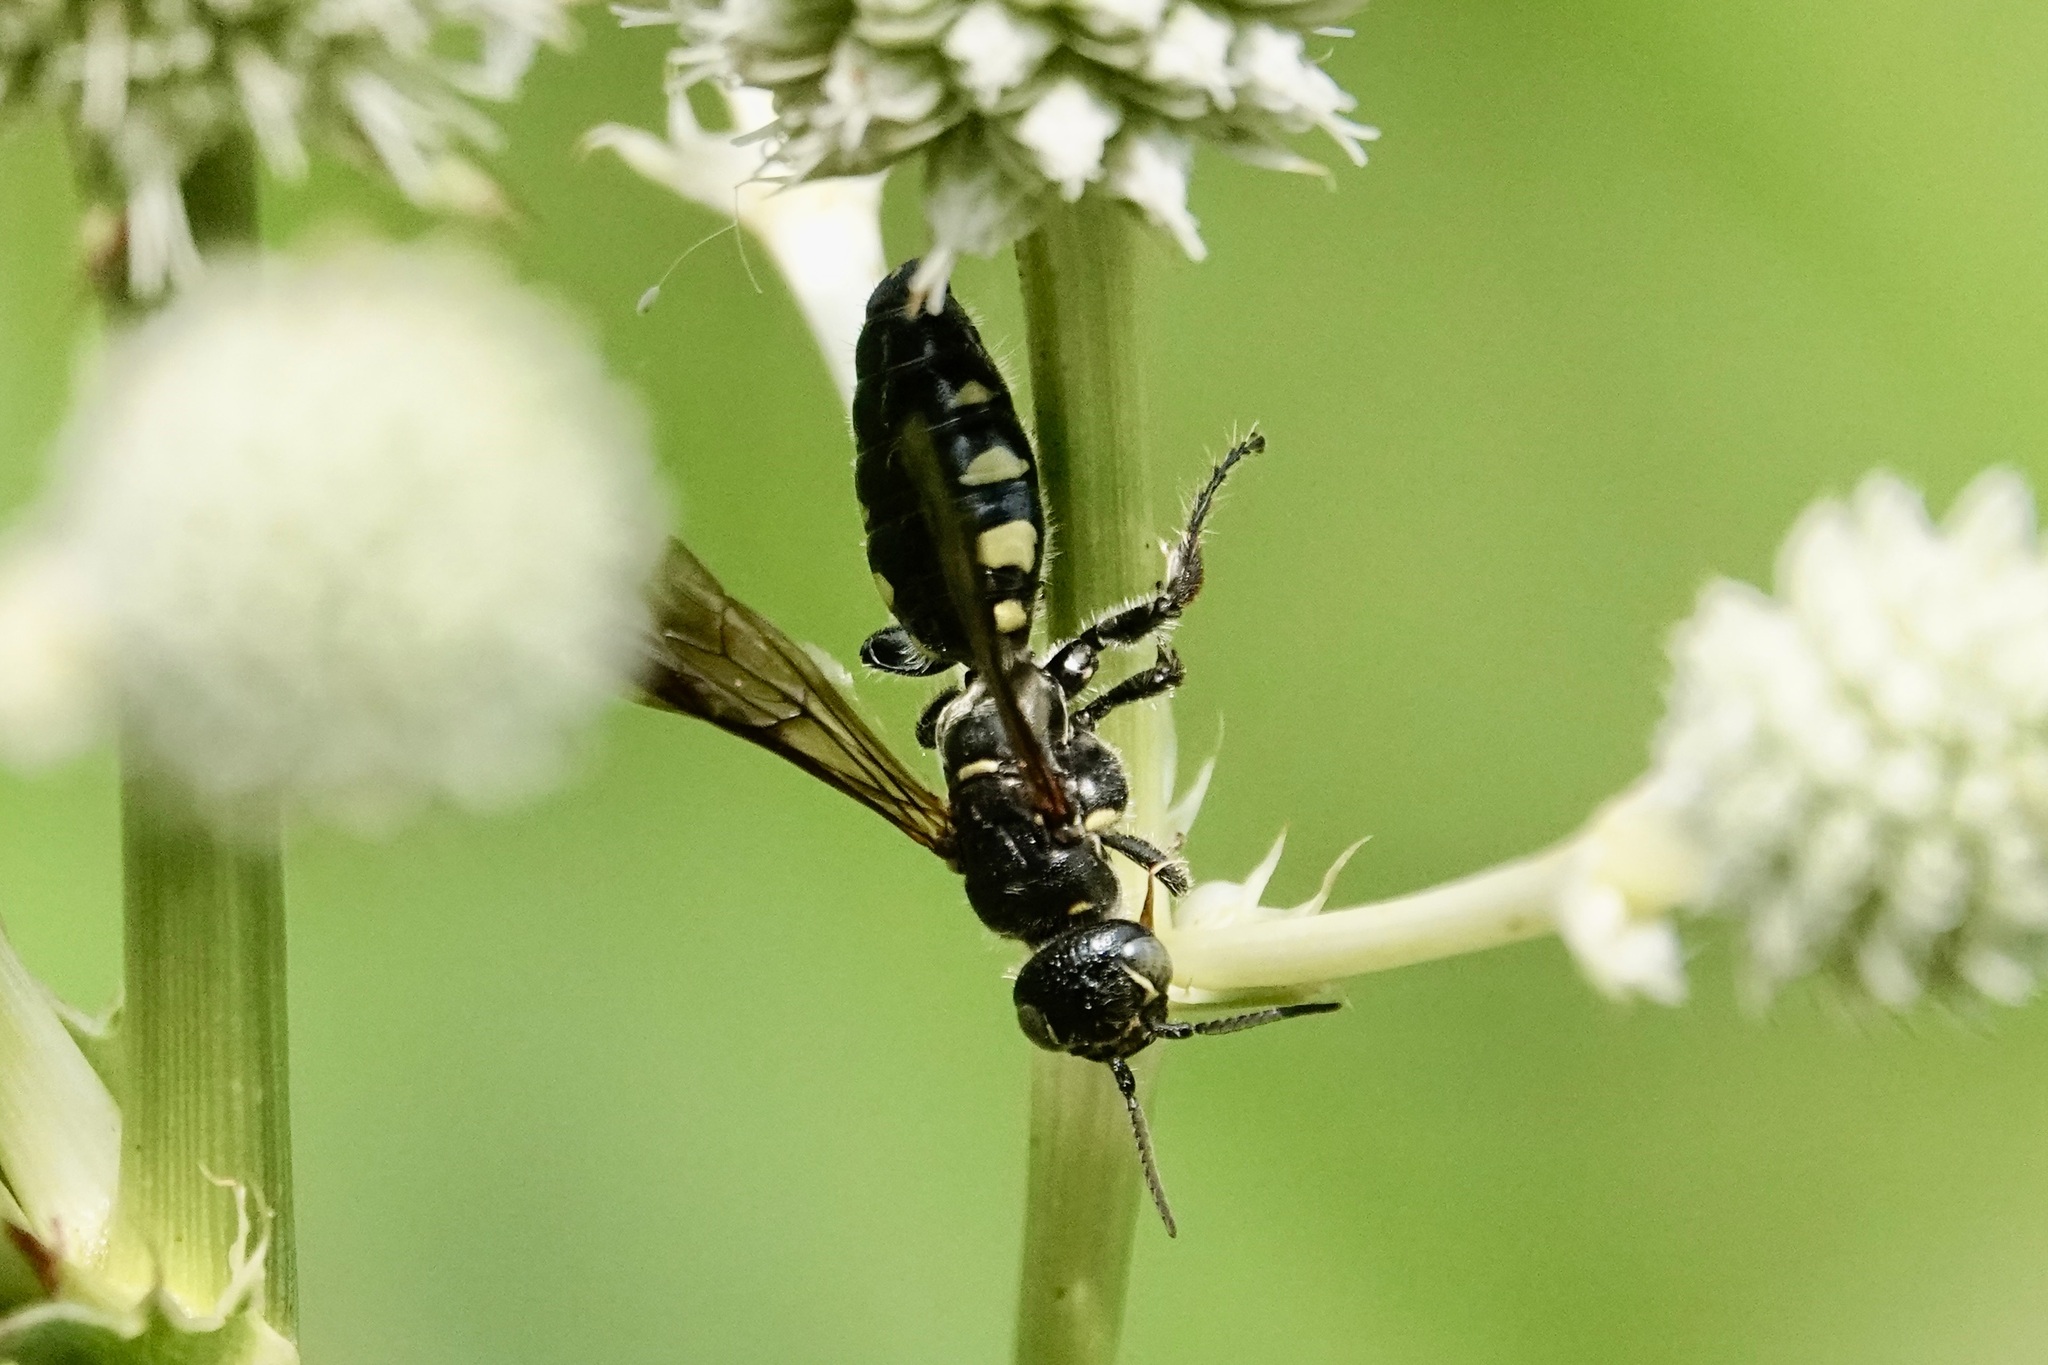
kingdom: Animalia
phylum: Arthropoda
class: Insecta
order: Hymenoptera
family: Tiphiidae
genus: Myzinum
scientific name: Myzinum obscurum
